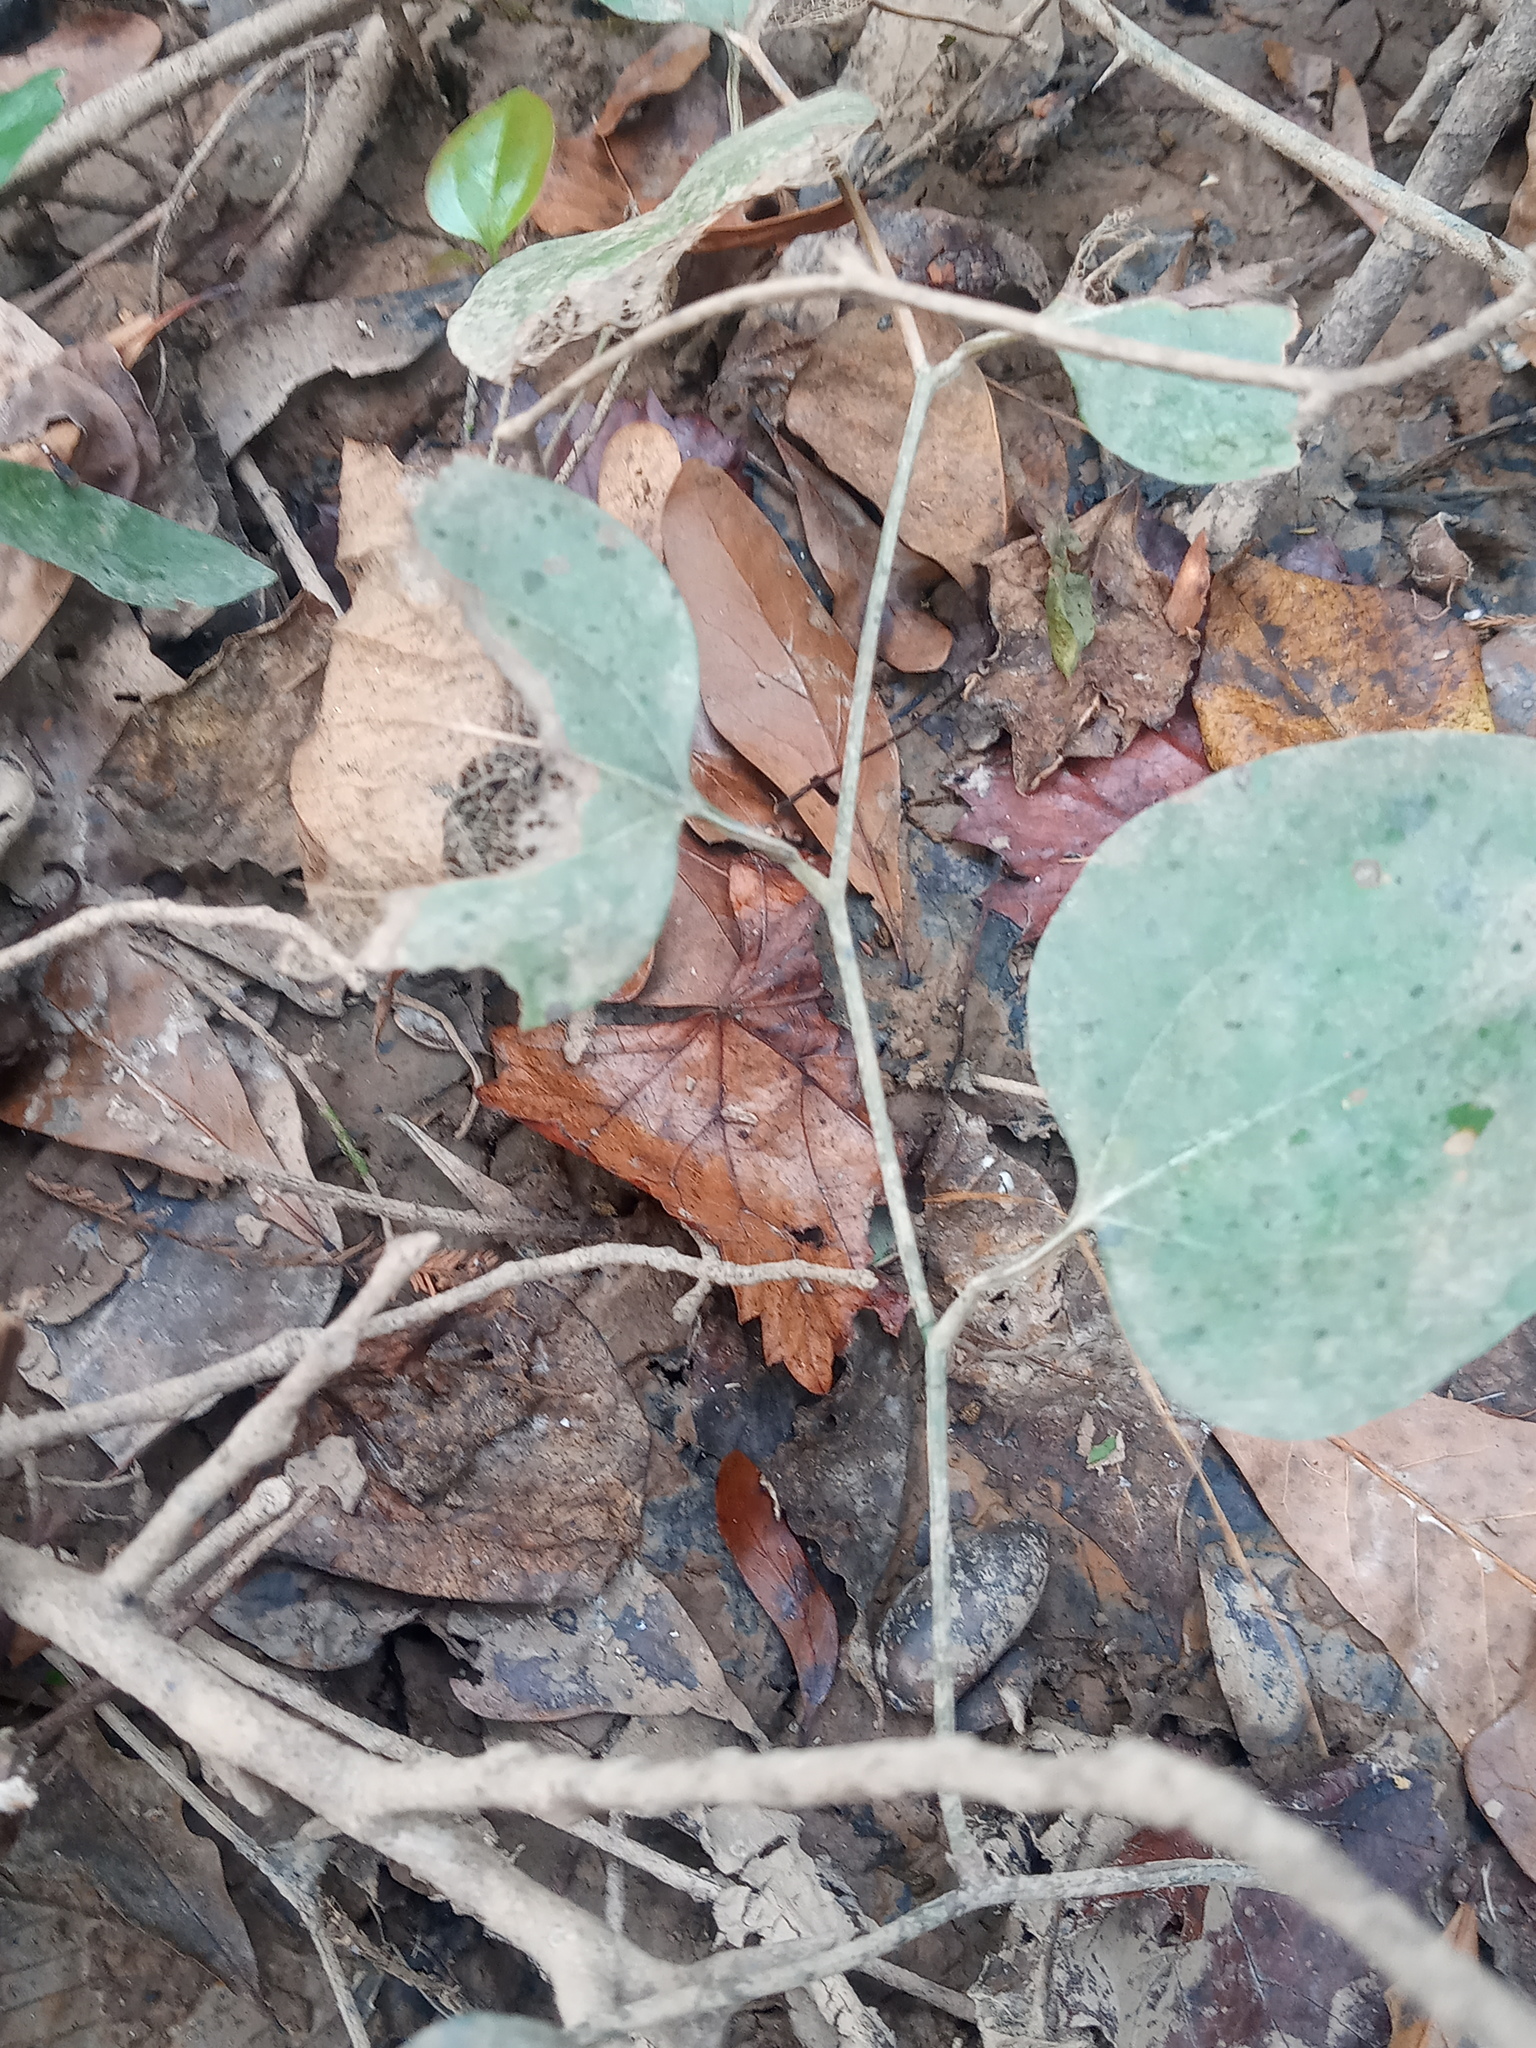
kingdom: Plantae
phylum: Tracheophyta
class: Liliopsida
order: Liliales
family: Smilacaceae
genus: Smilax
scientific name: Smilax rotundifolia
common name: Bullbriar
